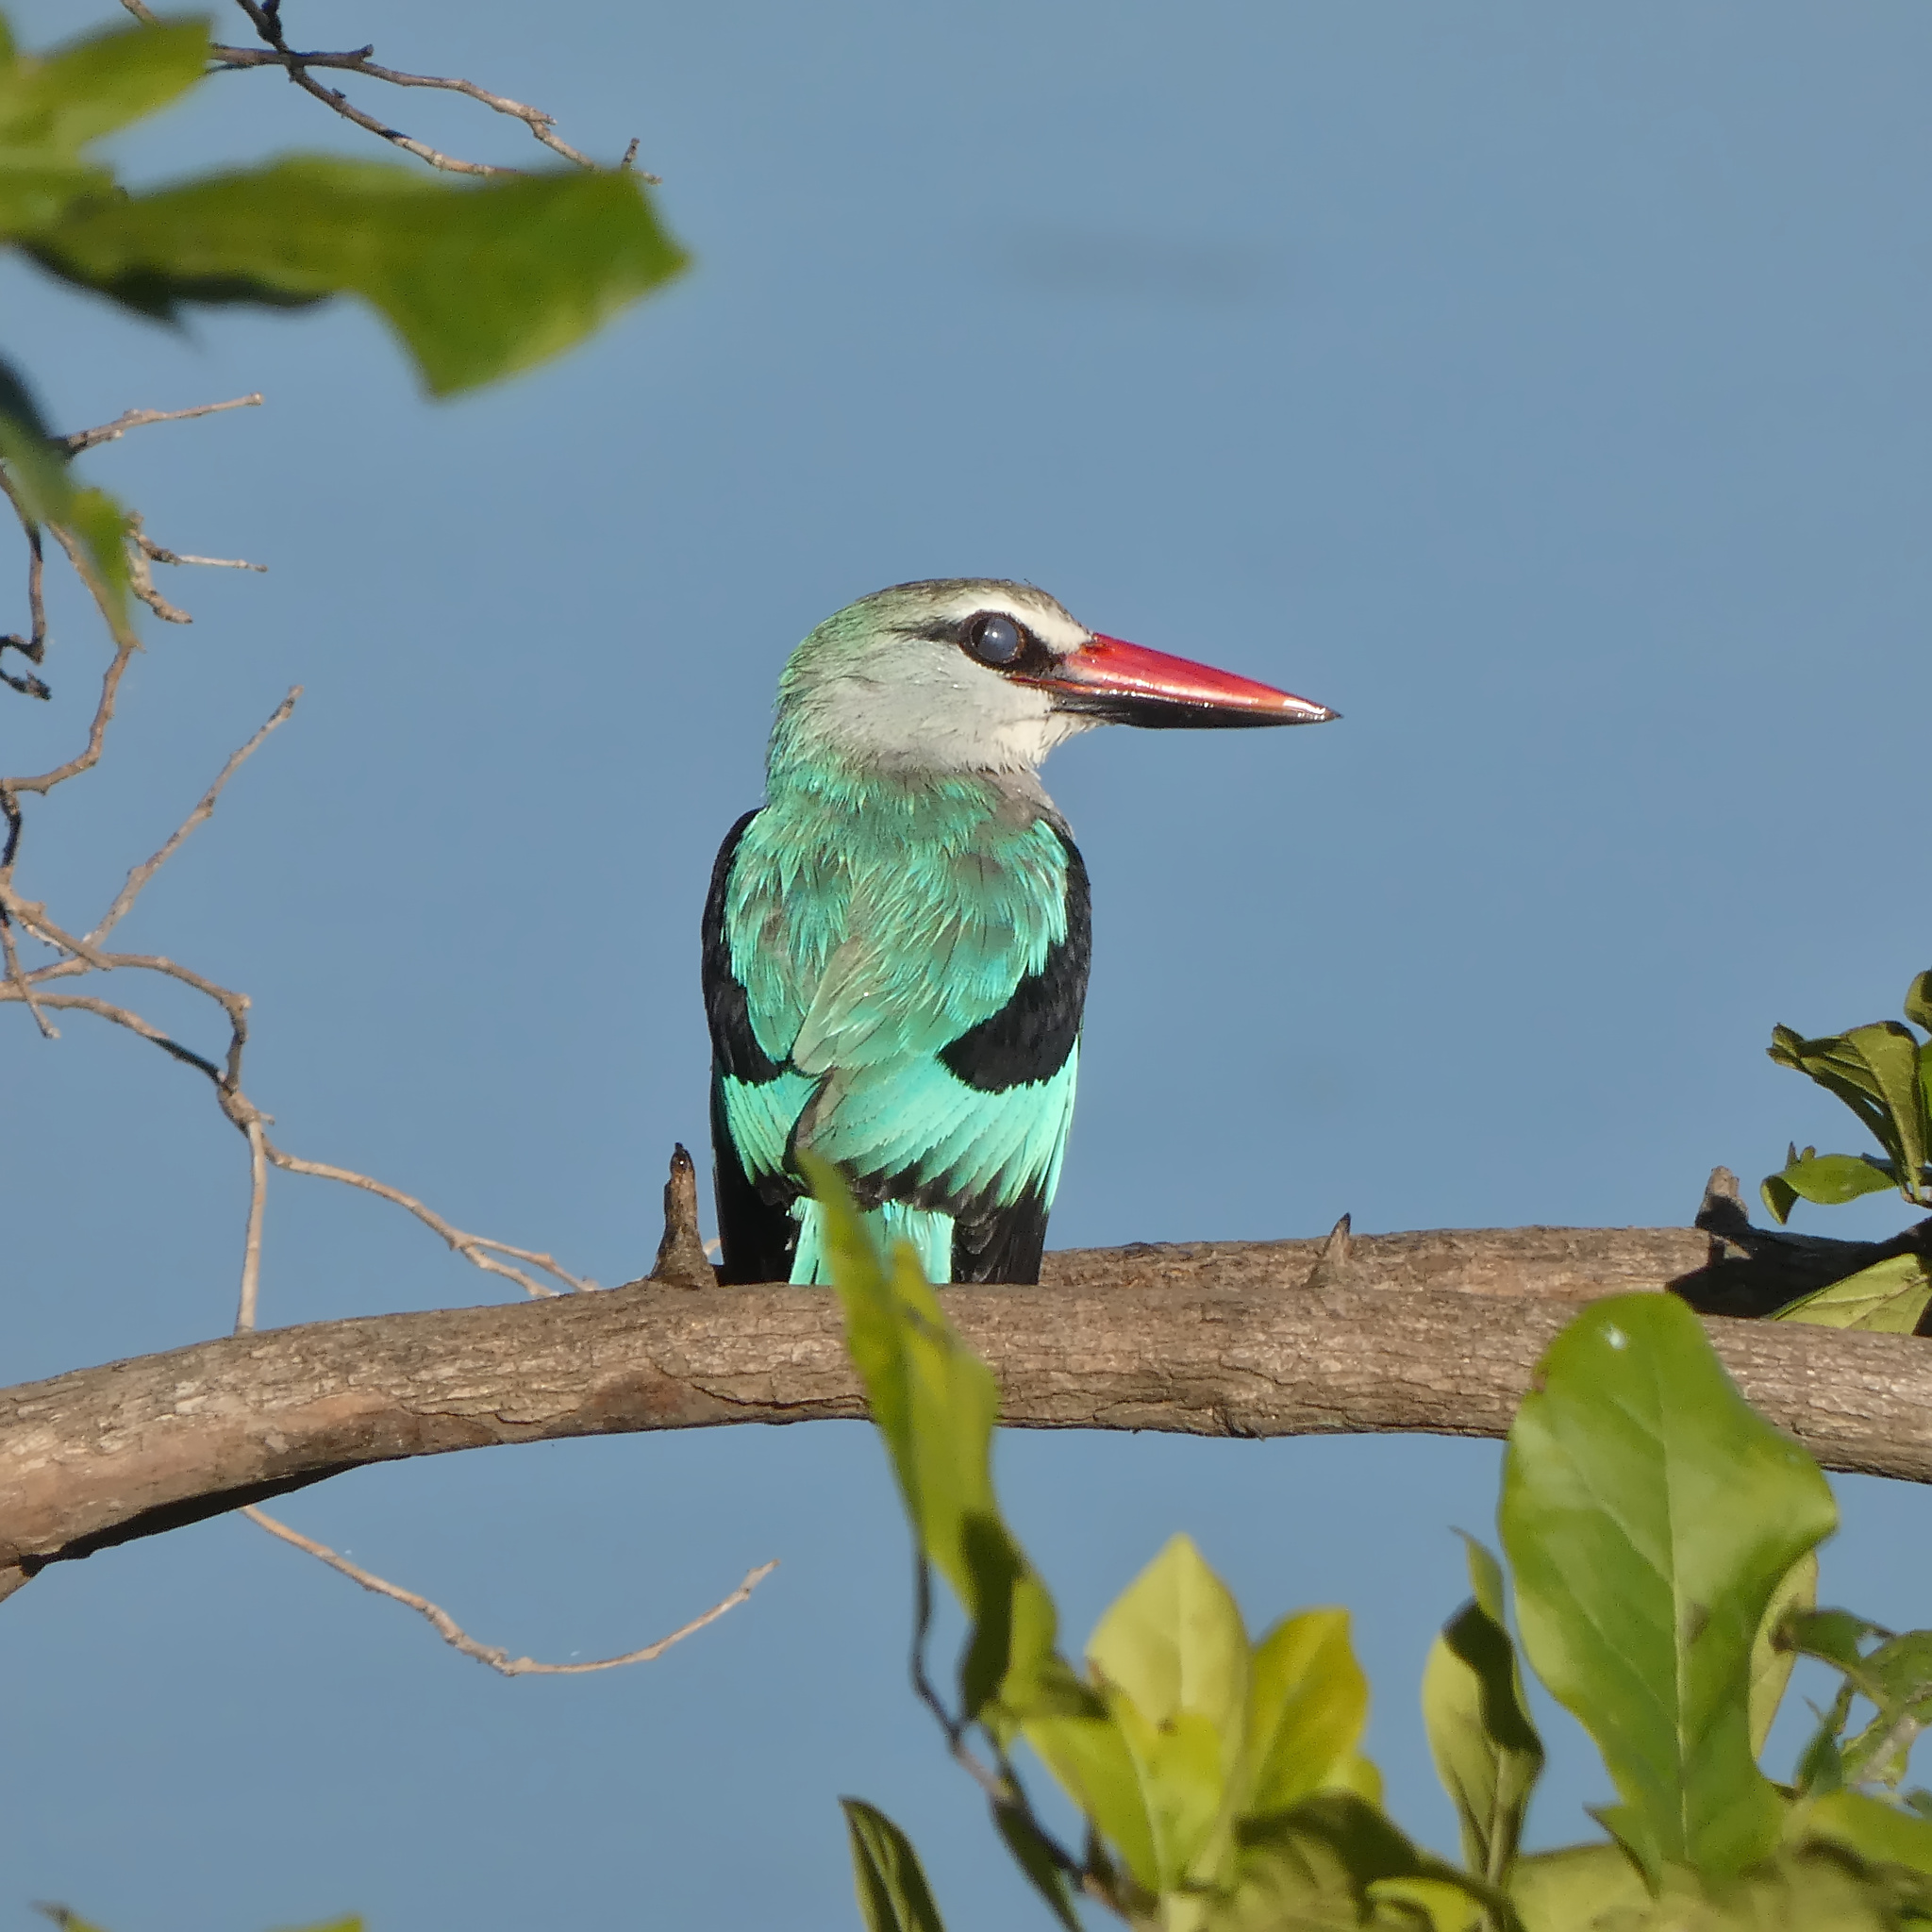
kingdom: Animalia
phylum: Chordata
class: Aves
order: Coraciiformes
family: Alcedinidae
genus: Halcyon
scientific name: Halcyon senegalensis
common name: Woodland kingfisher
